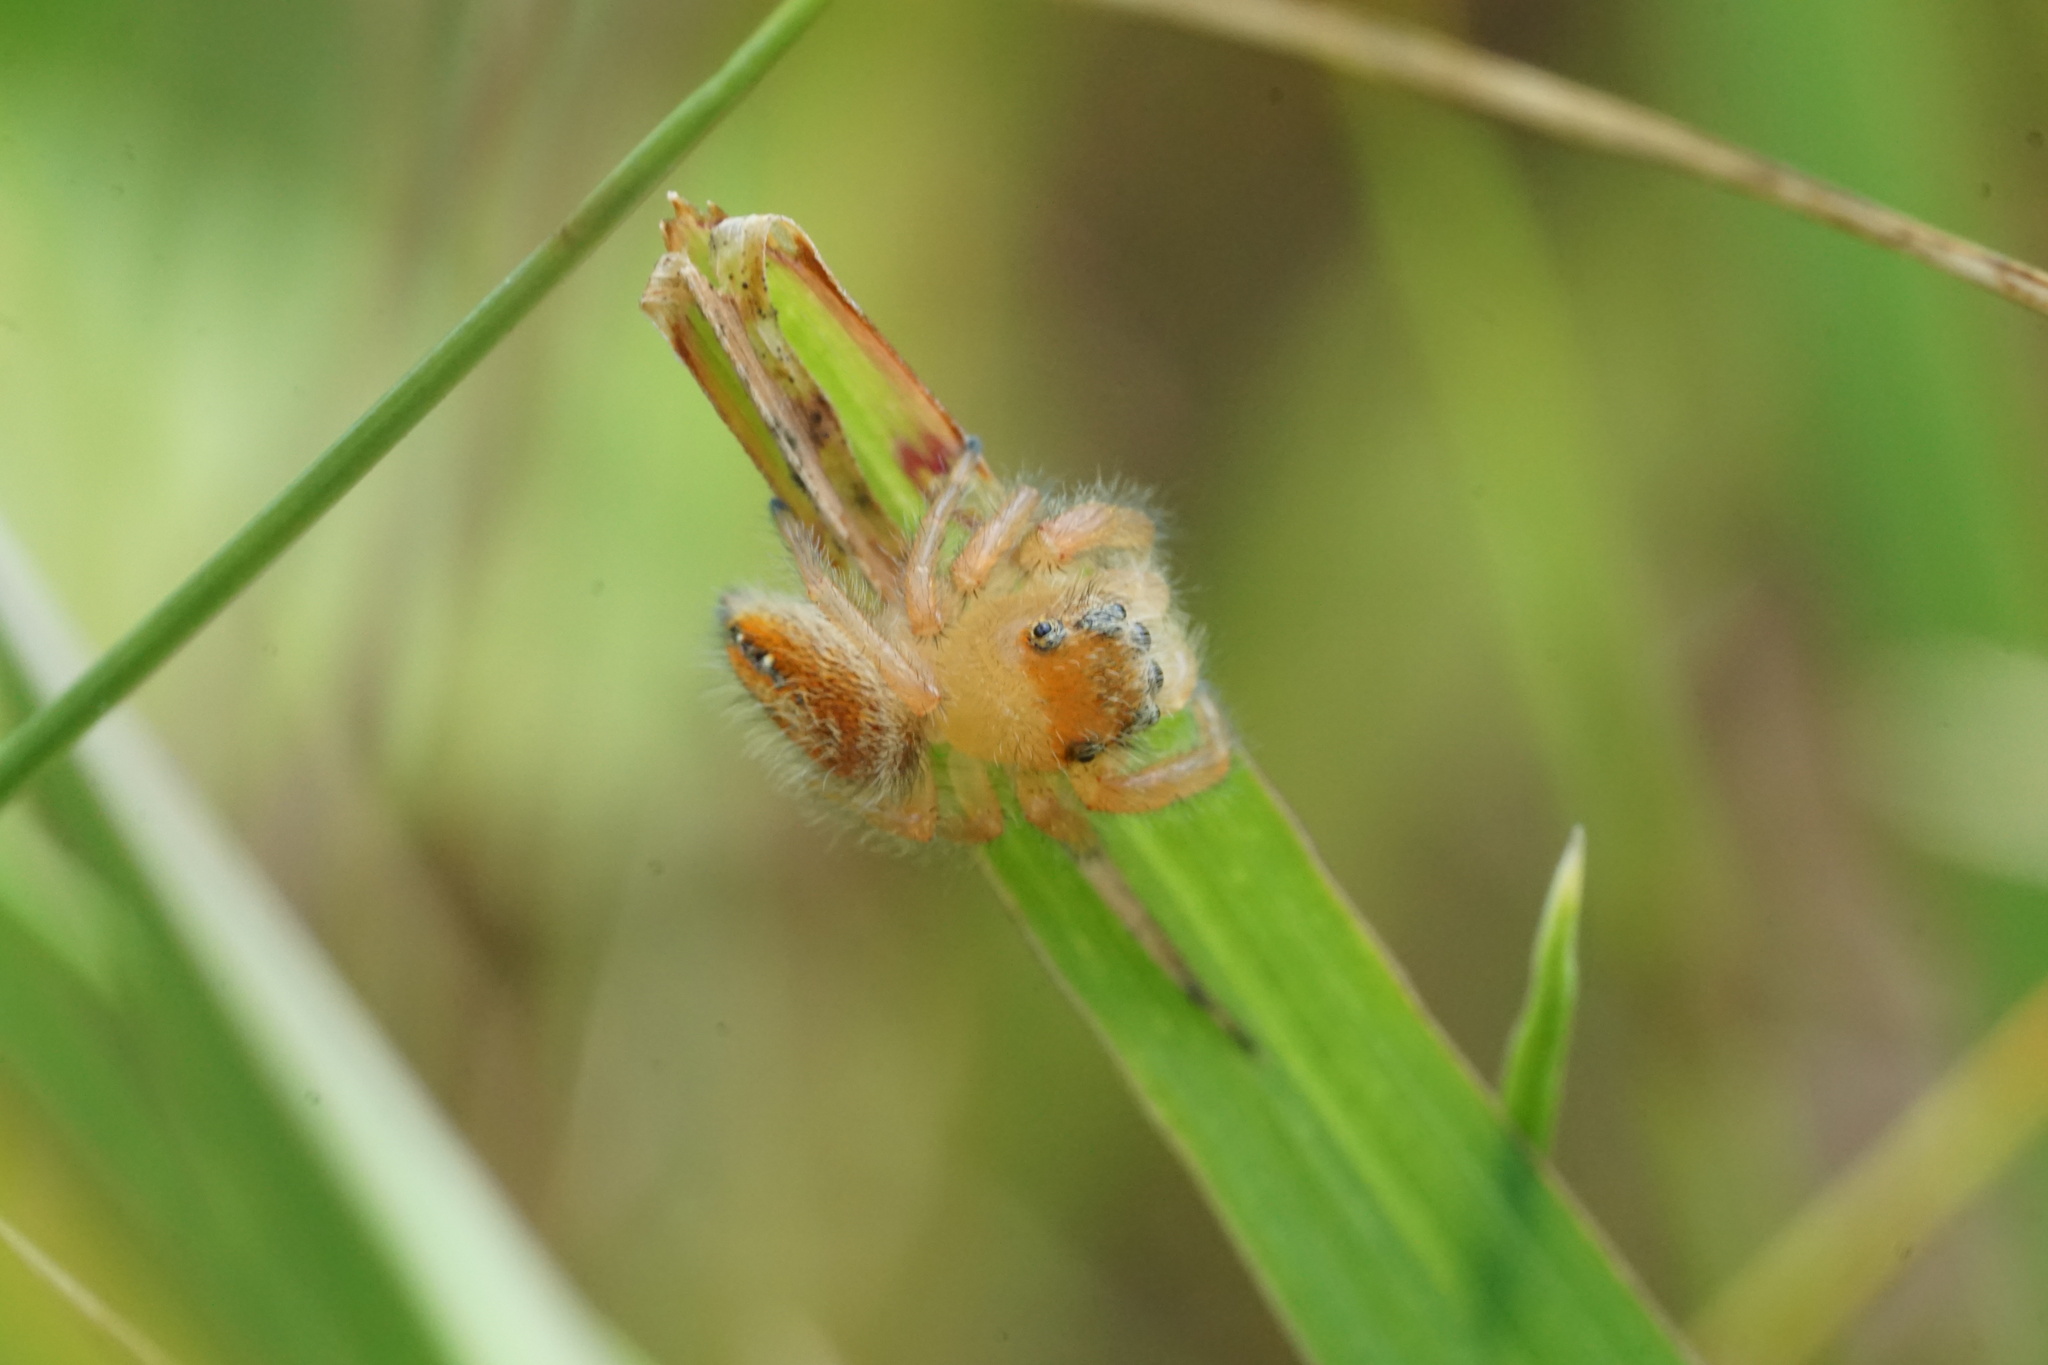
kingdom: Animalia
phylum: Arthropoda
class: Arachnida
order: Araneae
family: Salticidae
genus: Phidippus
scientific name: Phidippus cardinalis
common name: Cardinal jumper
